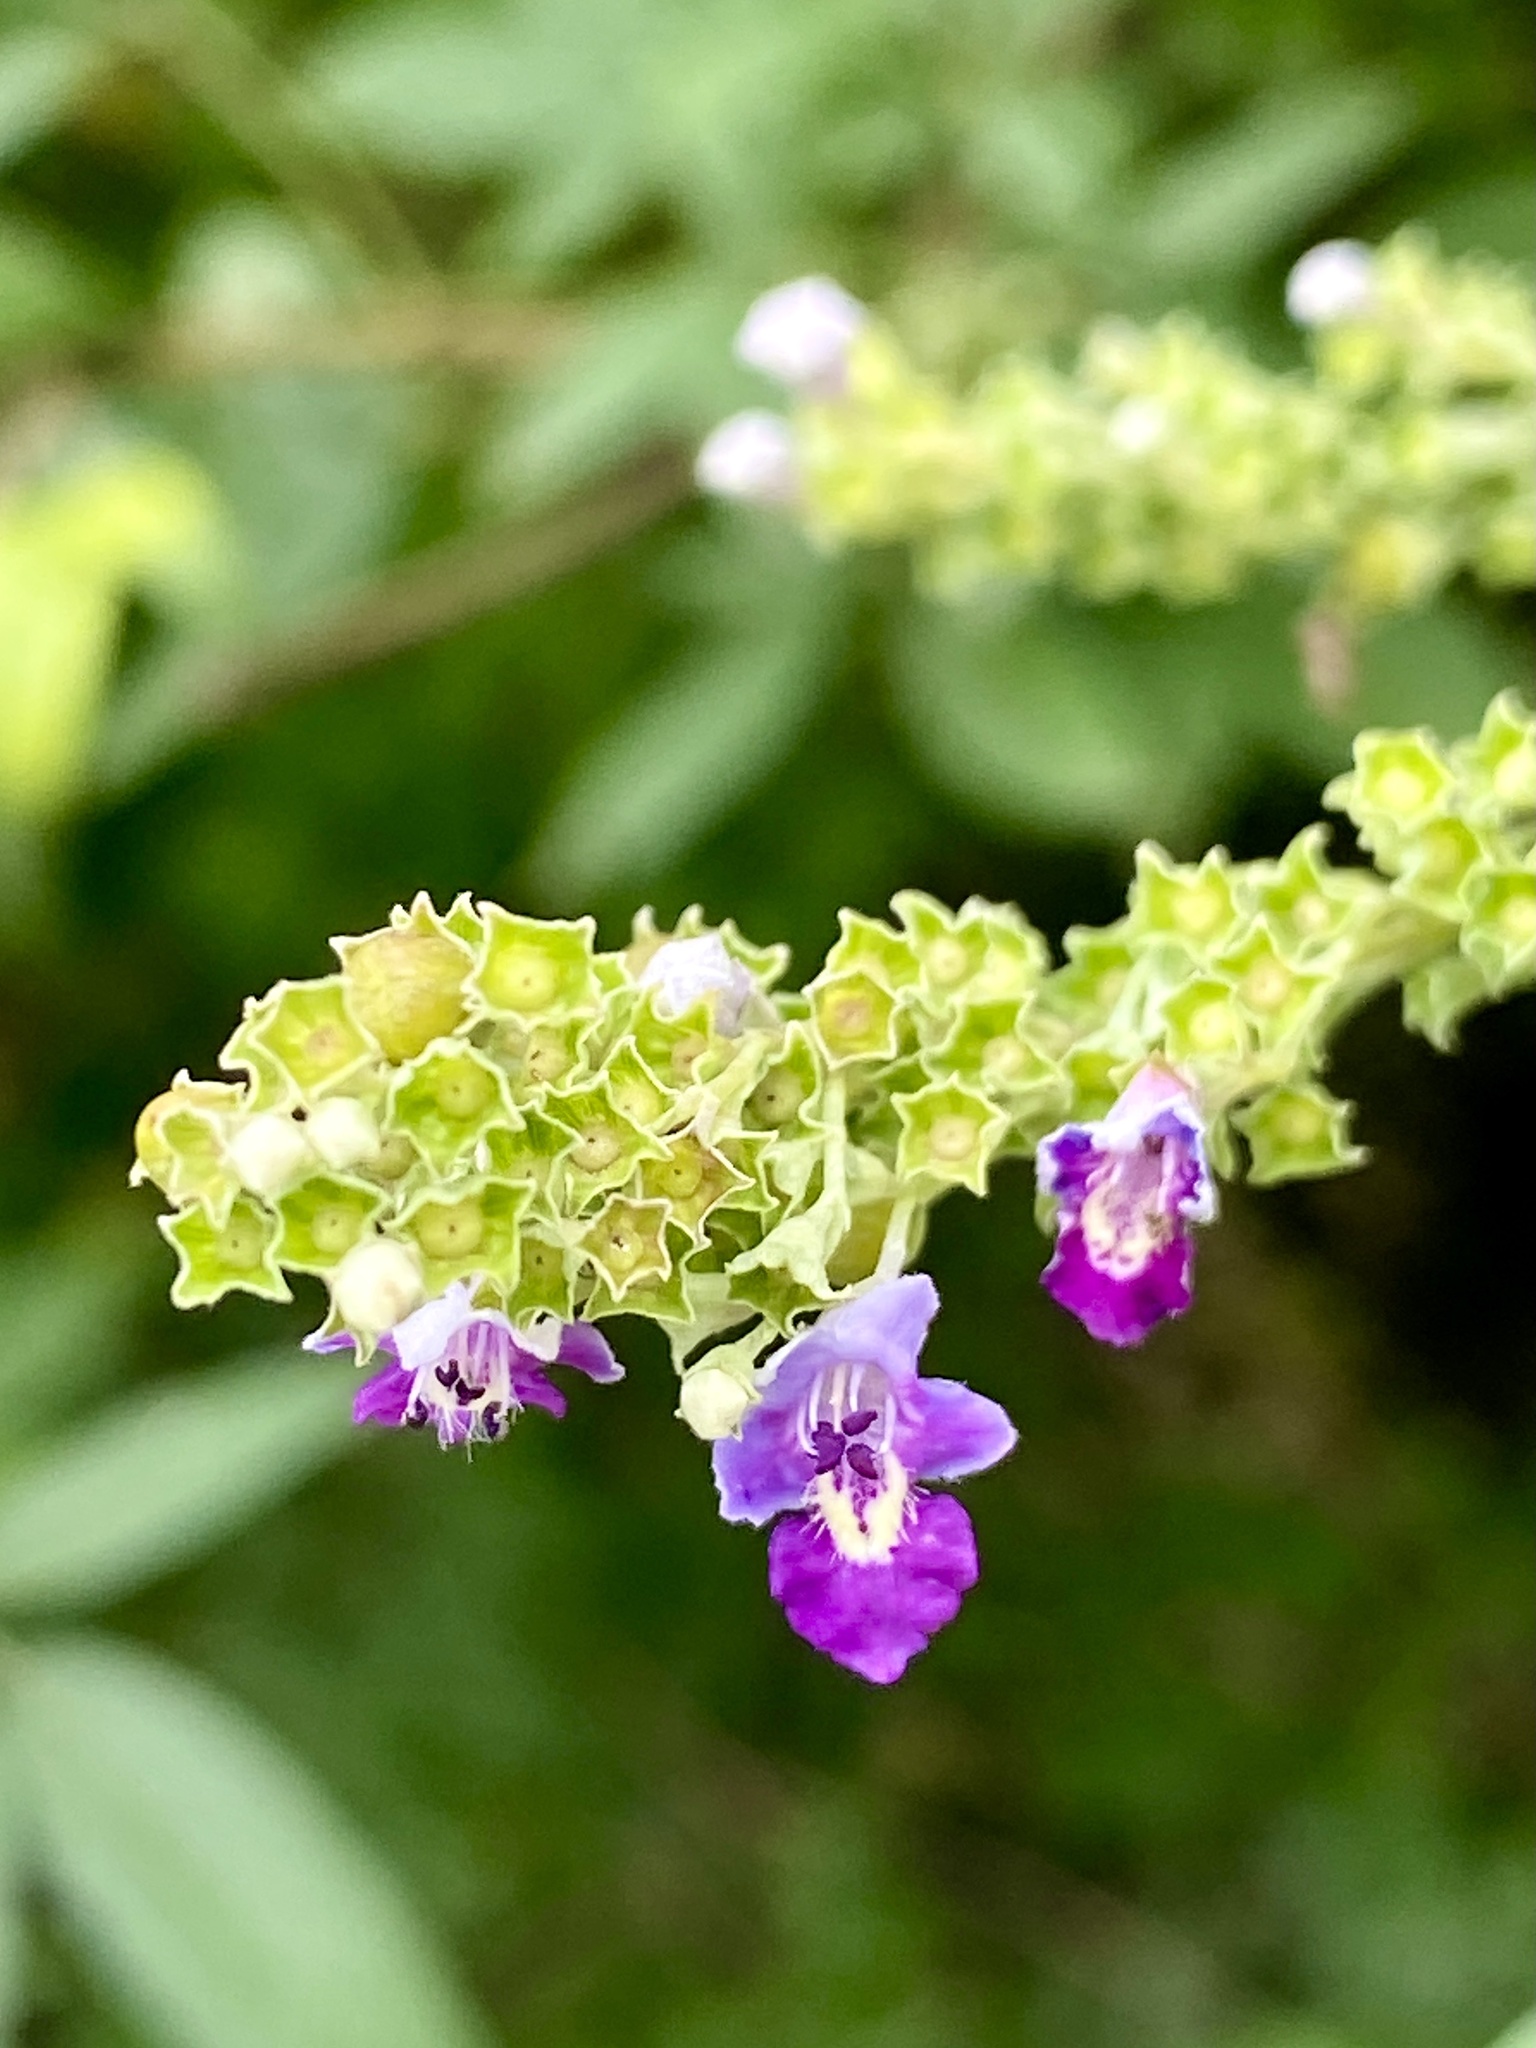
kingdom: Plantae
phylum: Tracheophyta
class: Magnoliopsida
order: Lamiales
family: Lamiaceae
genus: Vitex
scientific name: Vitex negundo
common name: Chinese chastetree
